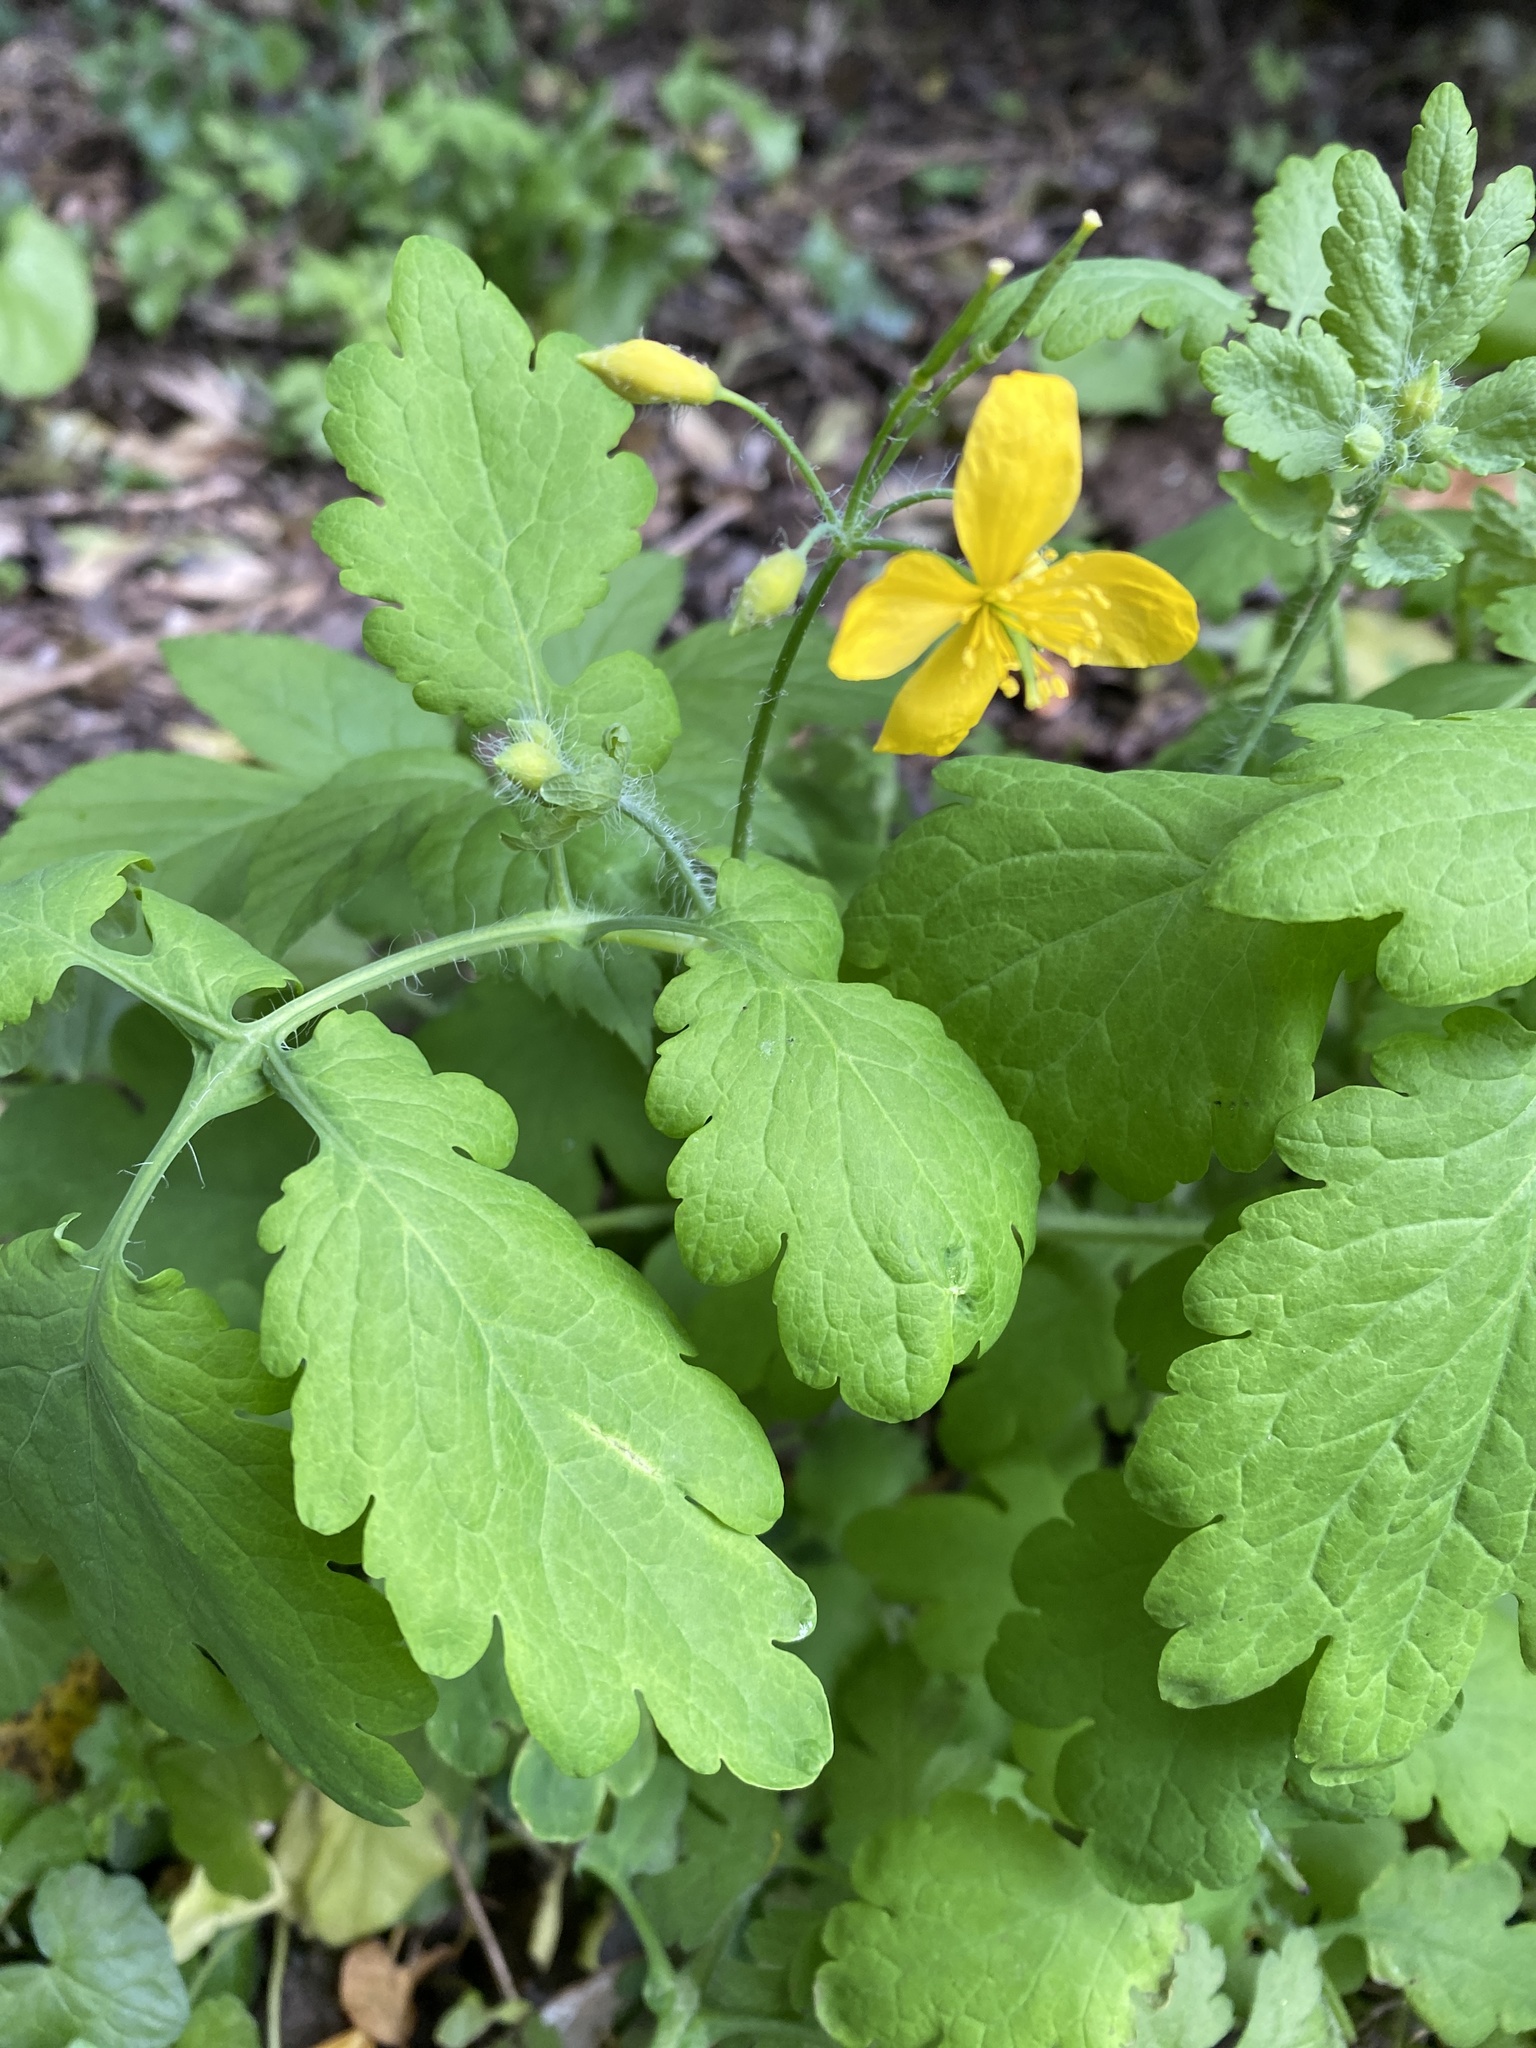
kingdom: Plantae
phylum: Tracheophyta
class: Magnoliopsida
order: Ranunculales
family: Papaveraceae
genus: Chelidonium
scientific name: Chelidonium majus
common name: Greater celandine
